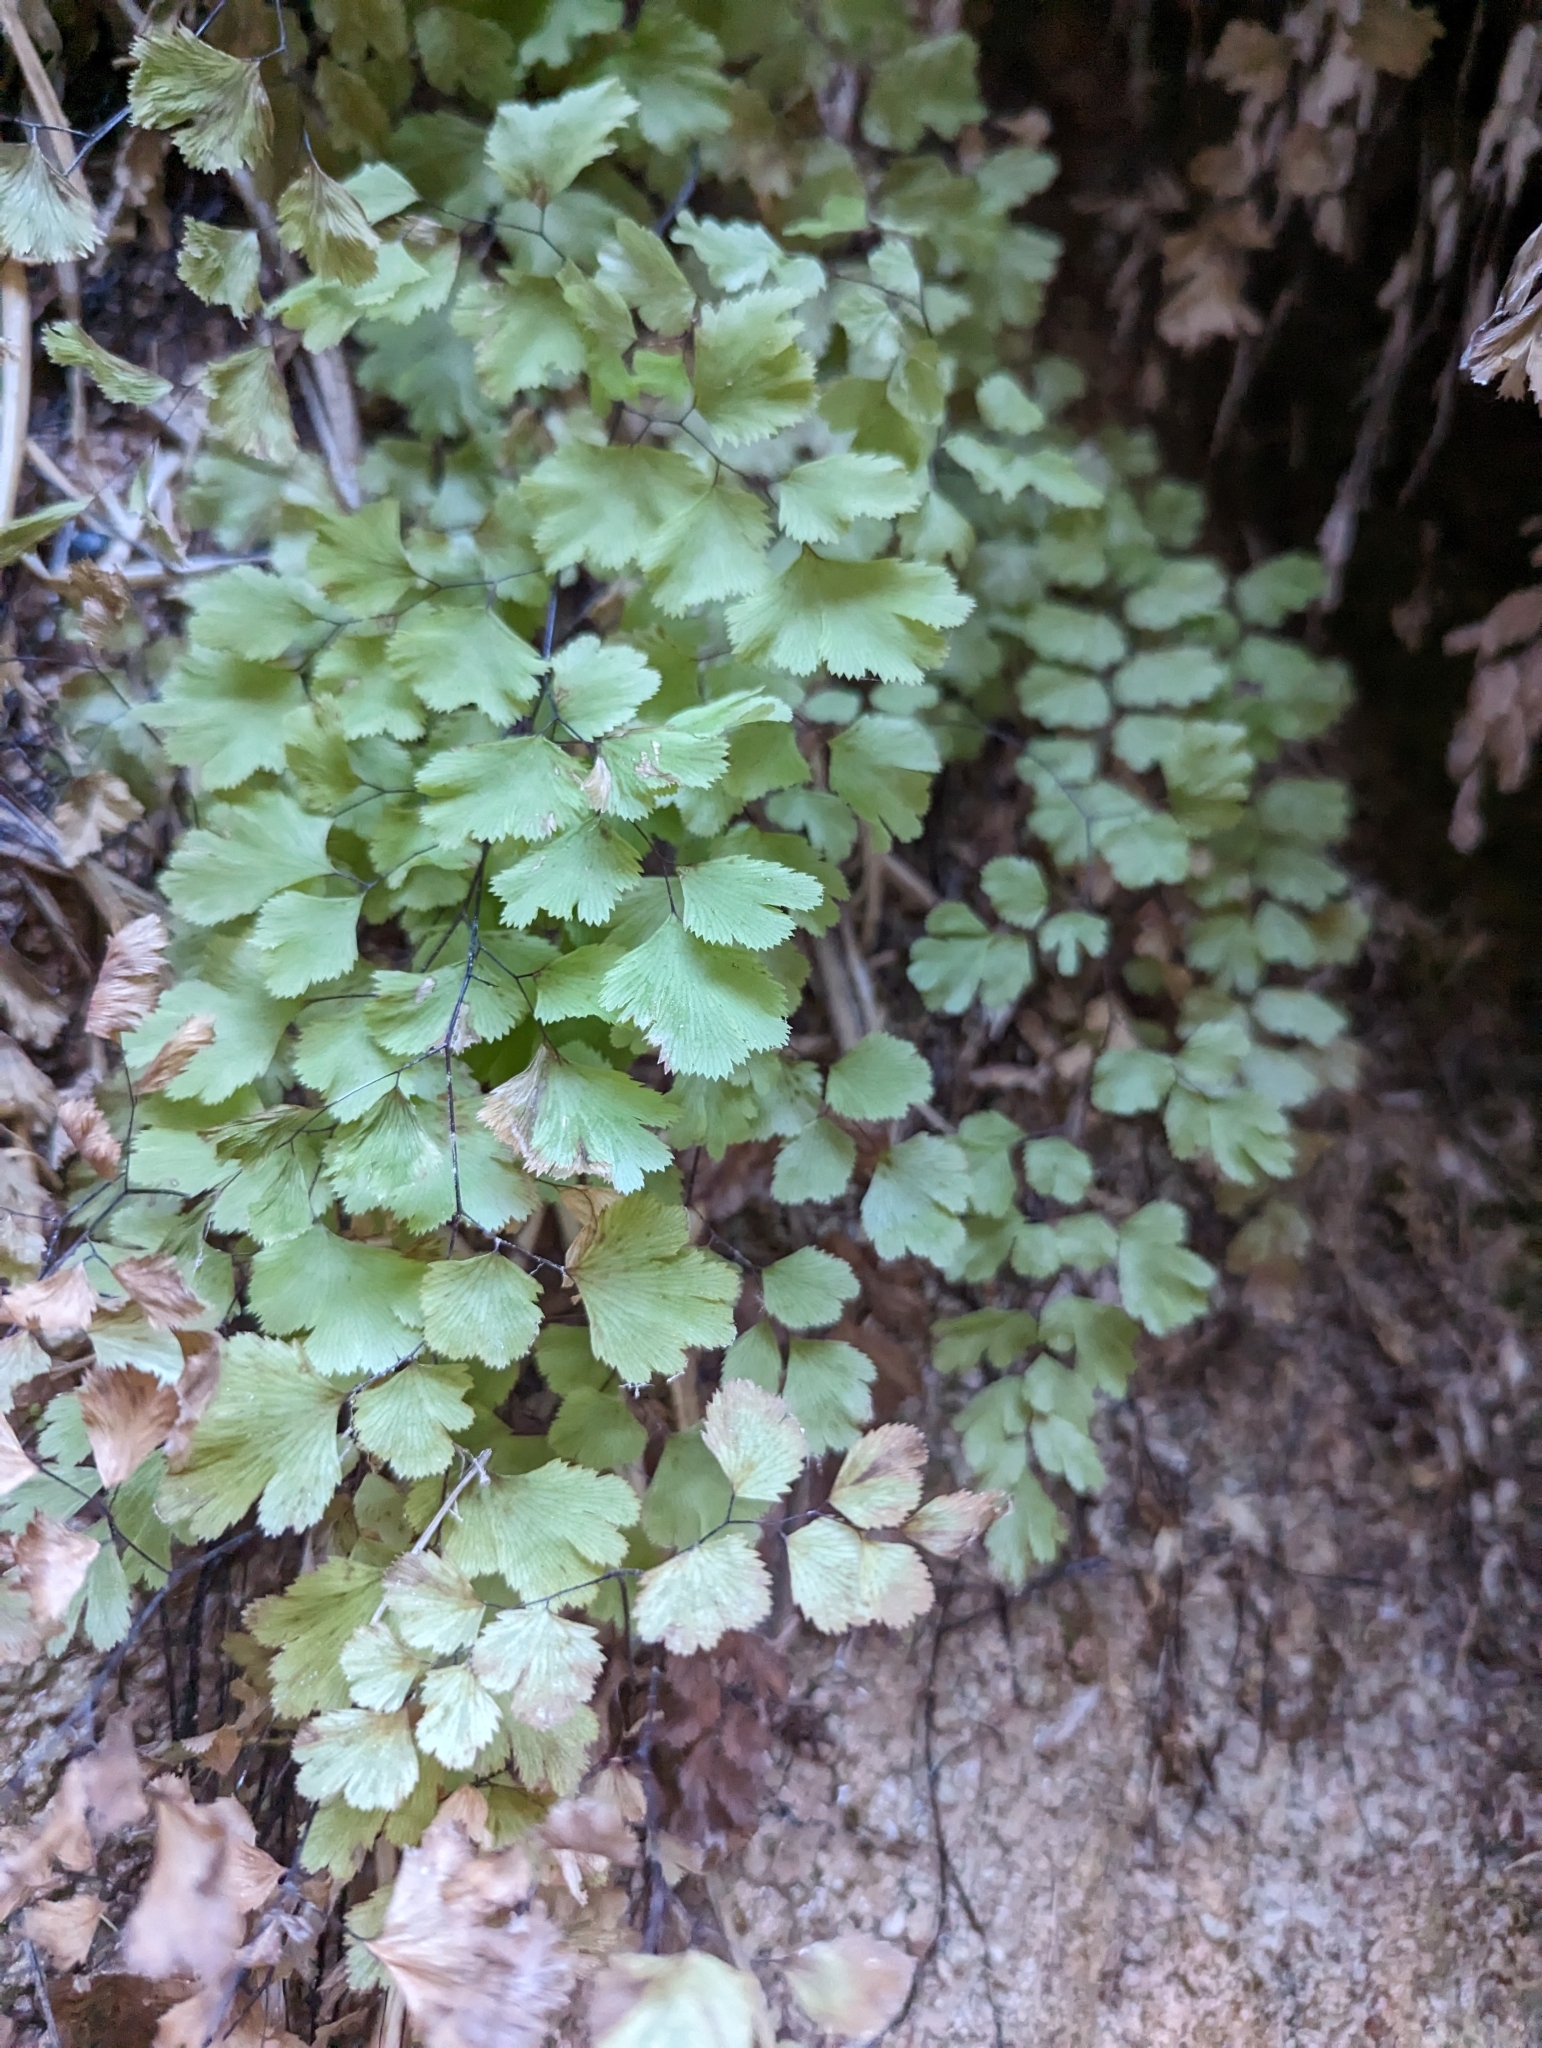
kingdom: Plantae
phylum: Tracheophyta
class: Polypodiopsida
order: Polypodiales
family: Pteridaceae
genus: Adiantum
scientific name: Adiantum capillus-veneris
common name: Maidenhair fern
